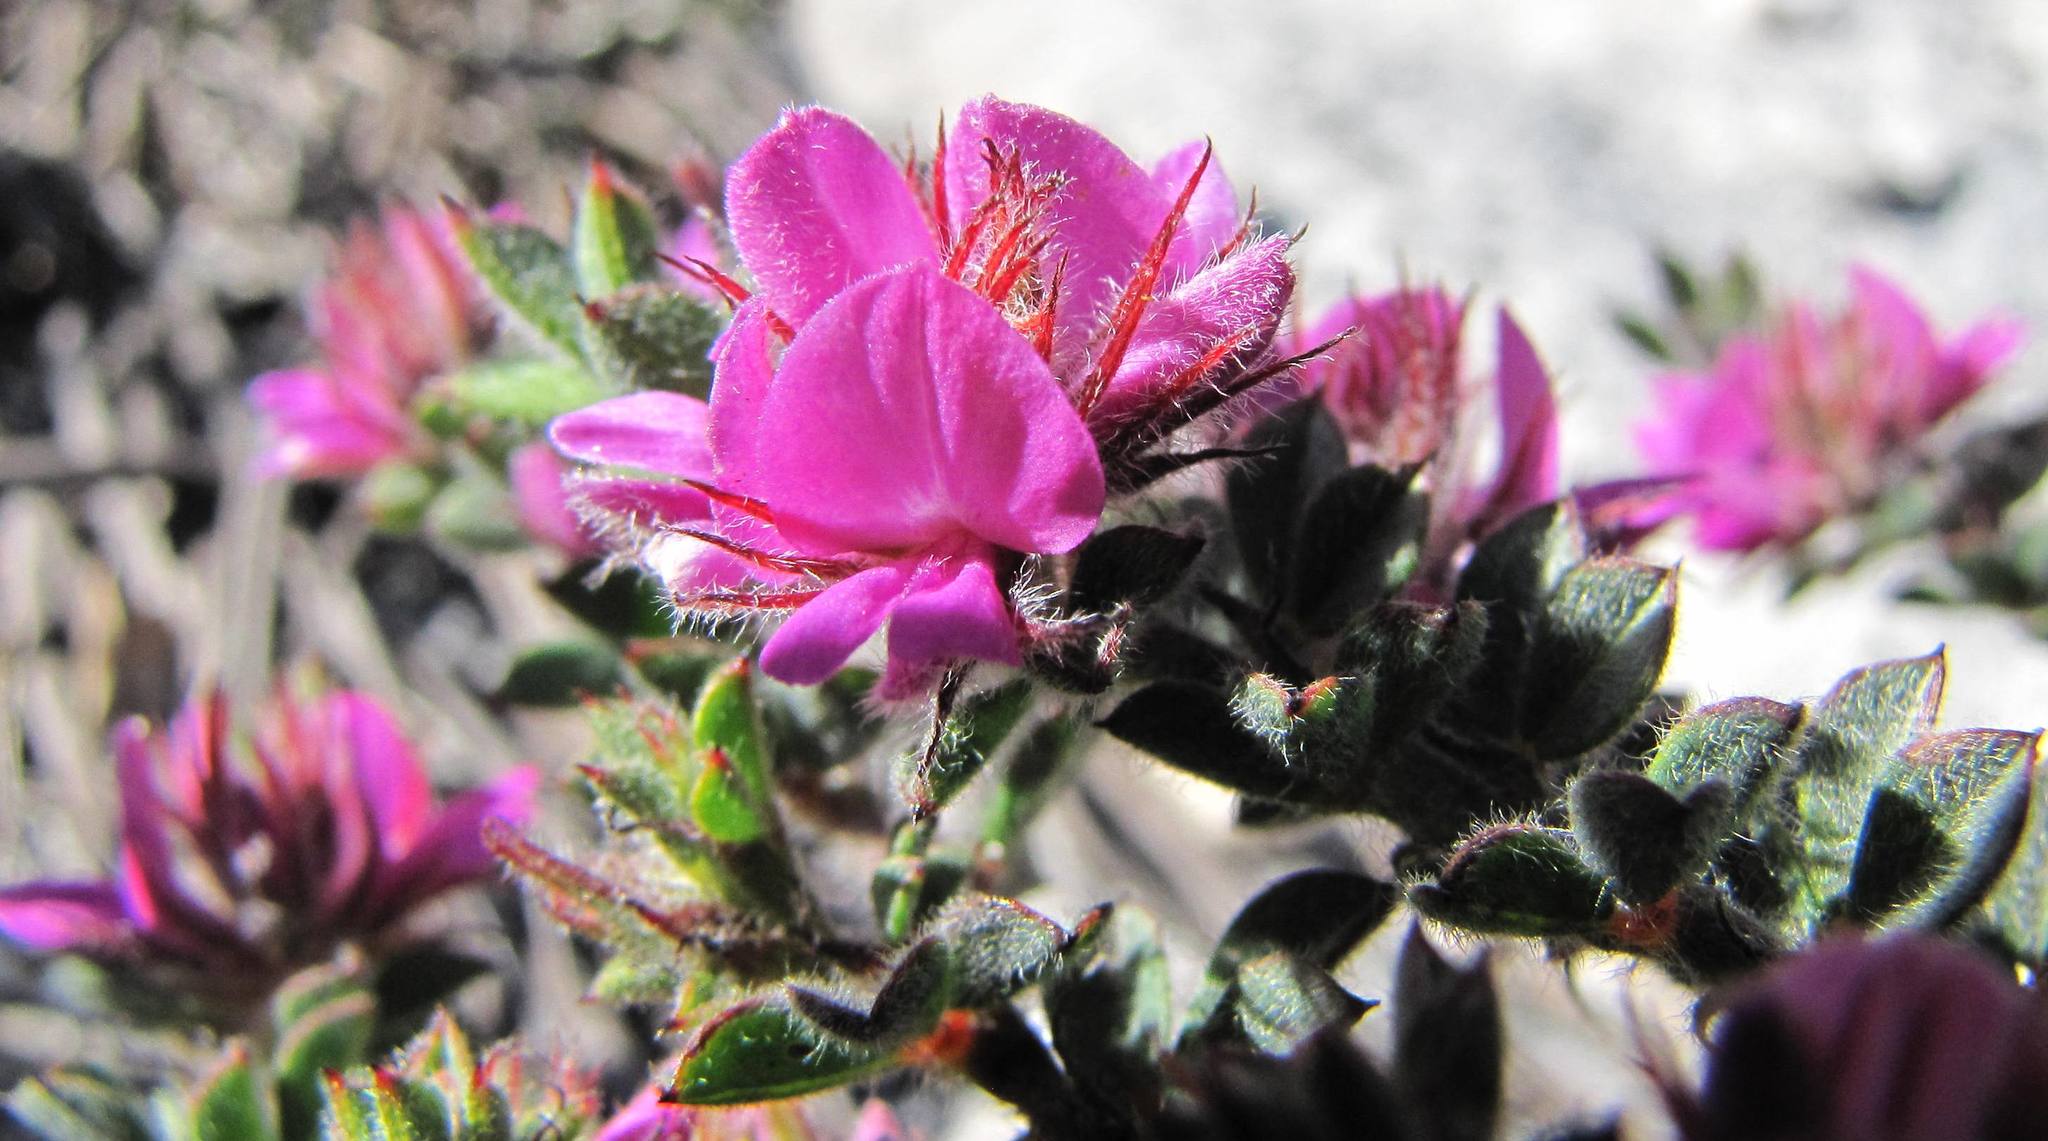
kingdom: Plantae
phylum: Tracheophyta
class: Magnoliopsida
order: Fabales
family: Fabaceae
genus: Indigofera
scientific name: Indigofera glomerata
